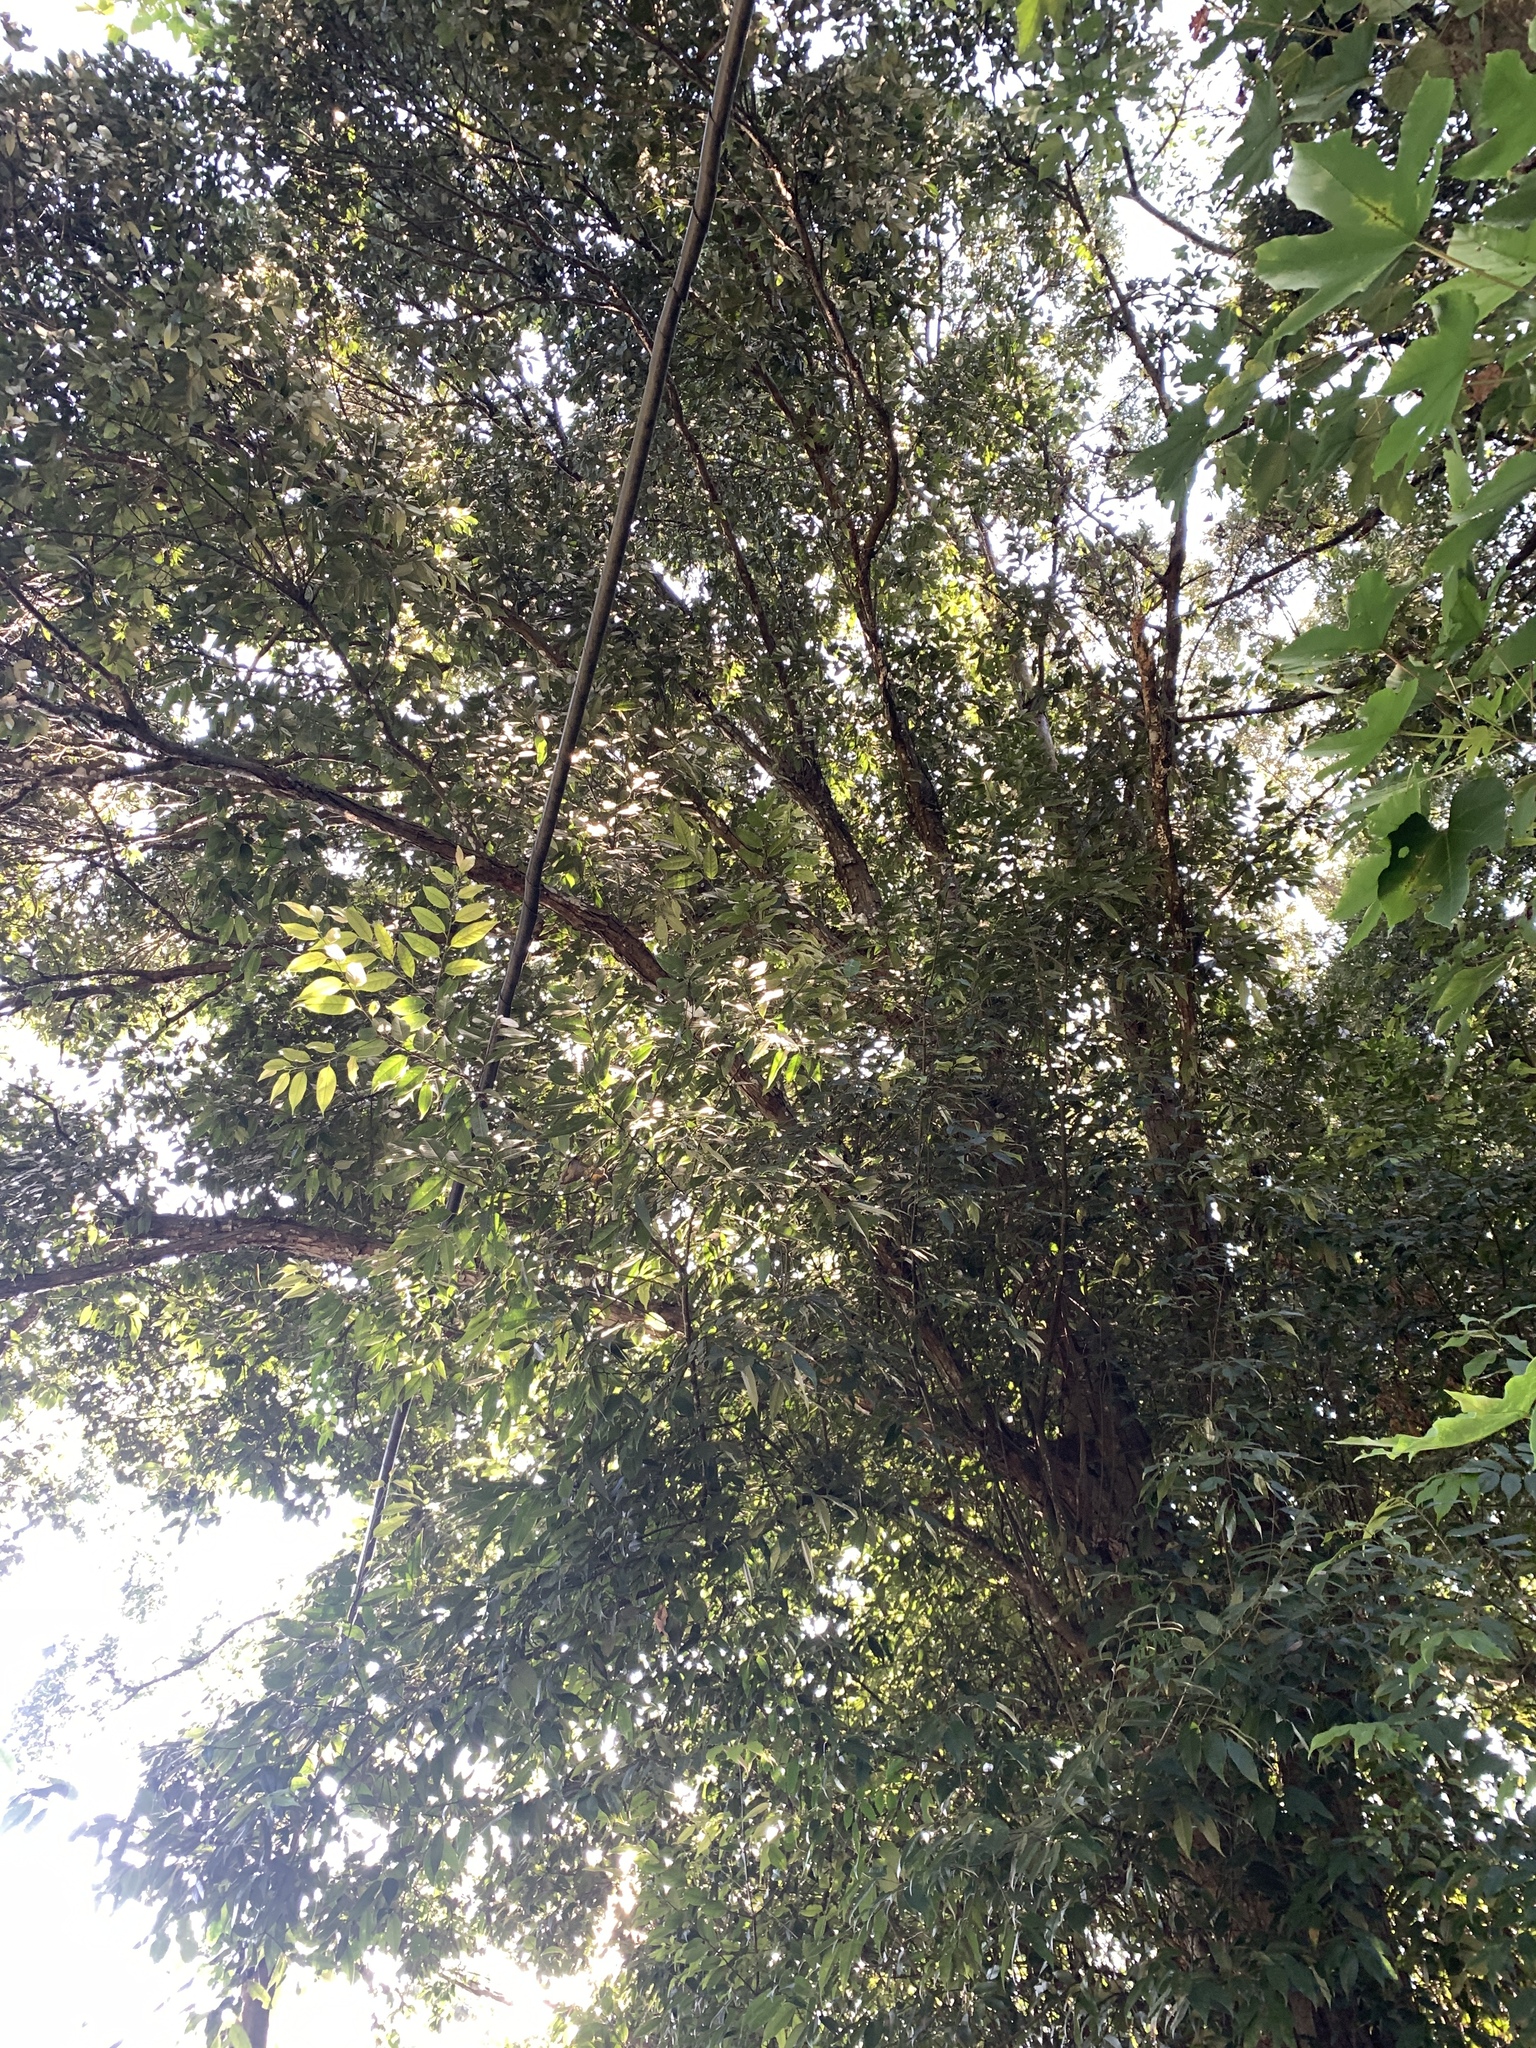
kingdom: Plantae
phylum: Tracheophyta
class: Magnoliopsida
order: Fagales
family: Fagaceae
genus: Castanopsis
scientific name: Castanopsis kawakamii
